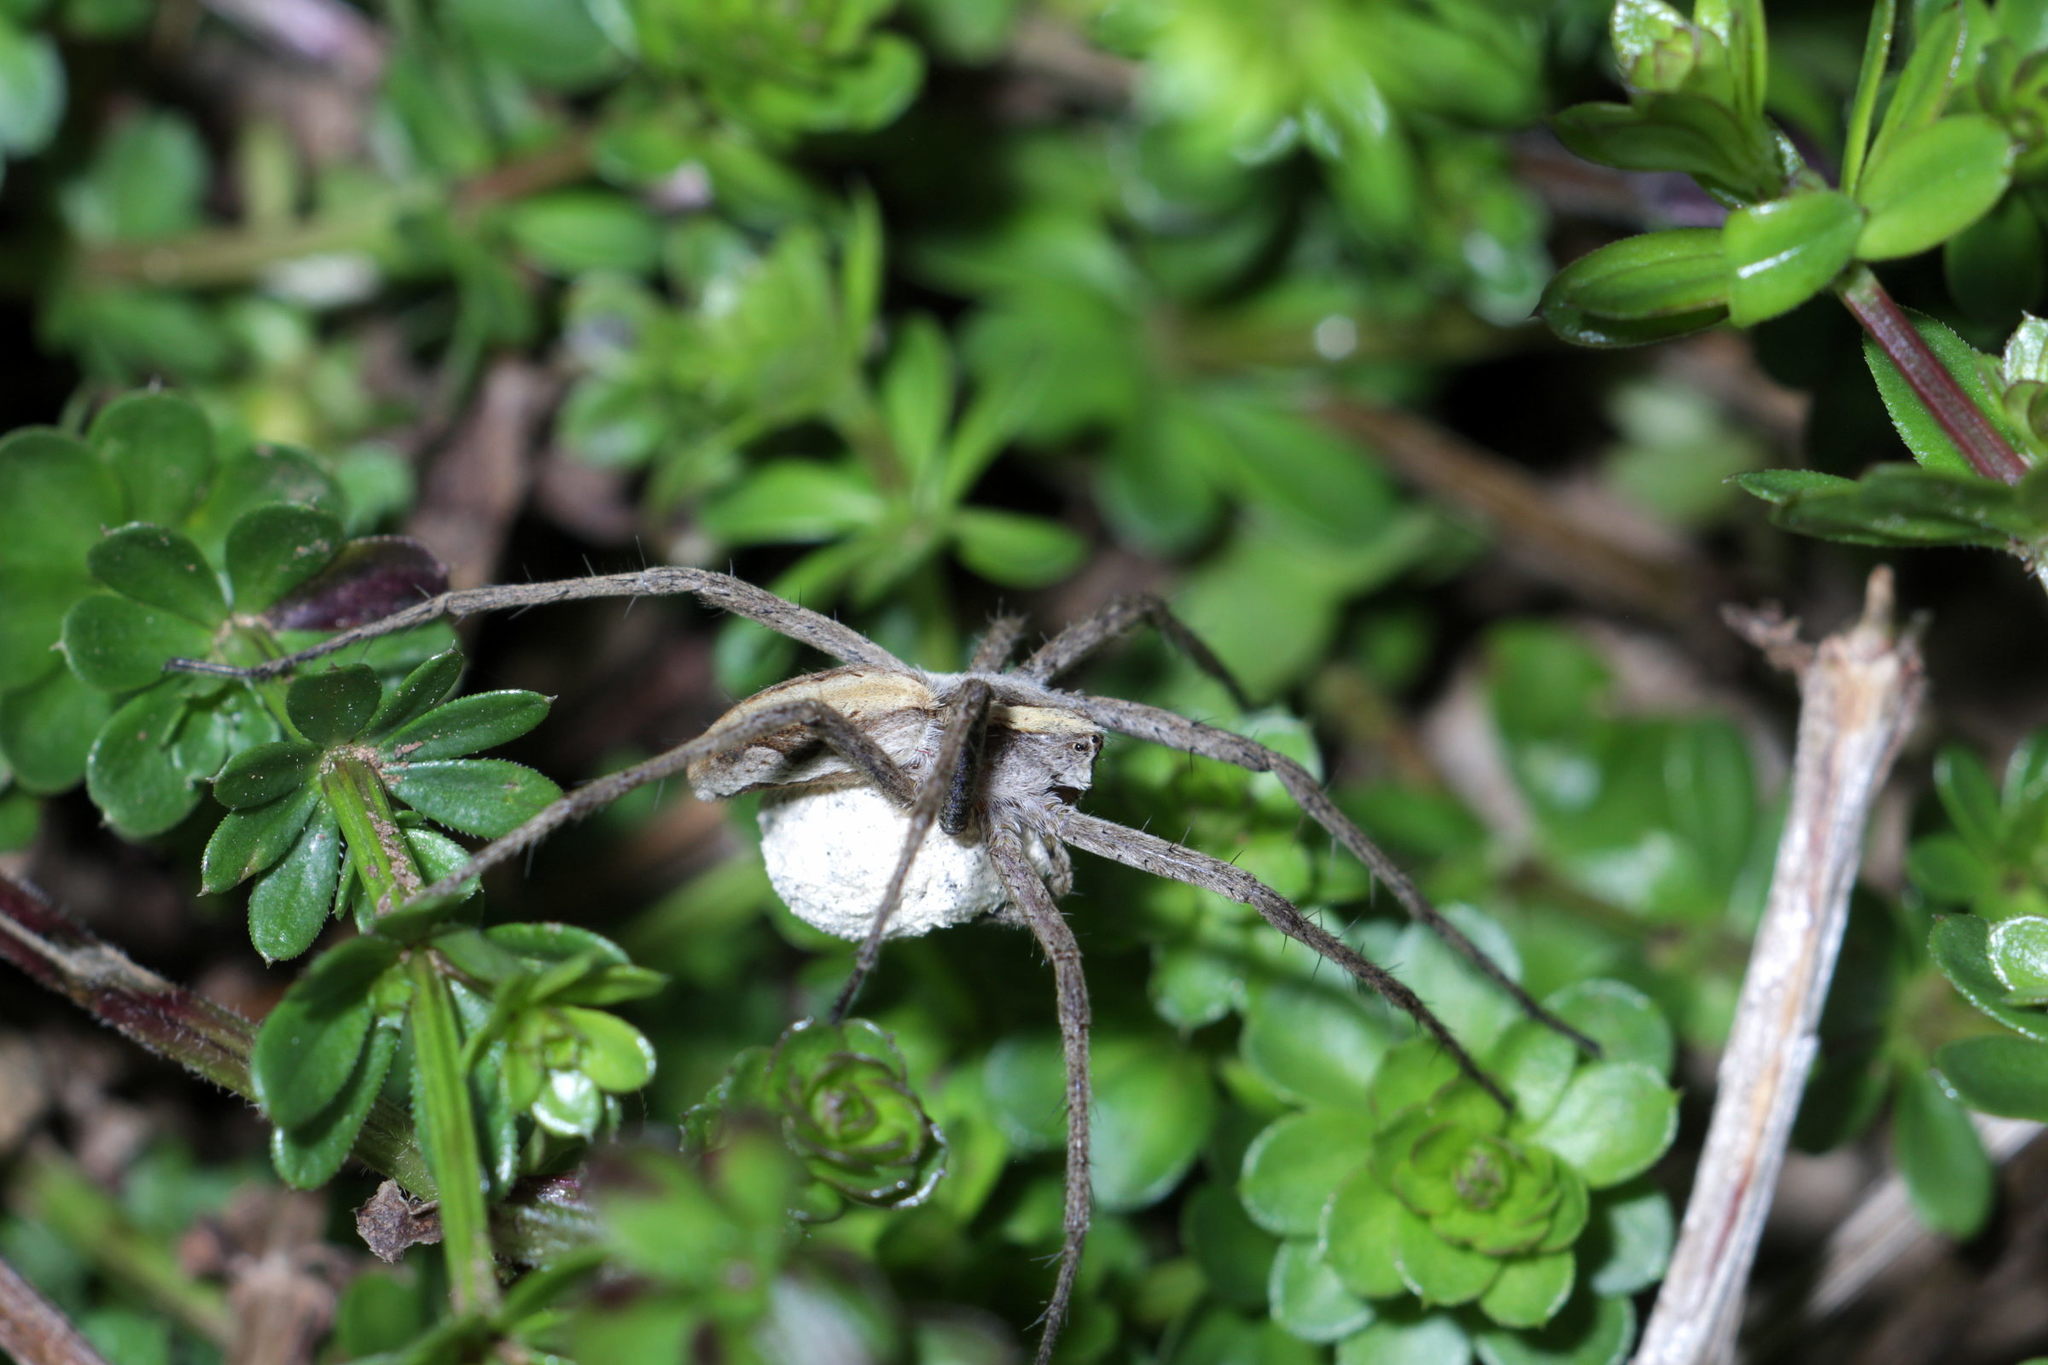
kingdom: Animalia
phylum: Arthropoda
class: Arachnida
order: Araneae
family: Pisauridae
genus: Pisaura
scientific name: Pisaura mirabilis
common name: Tent spider
